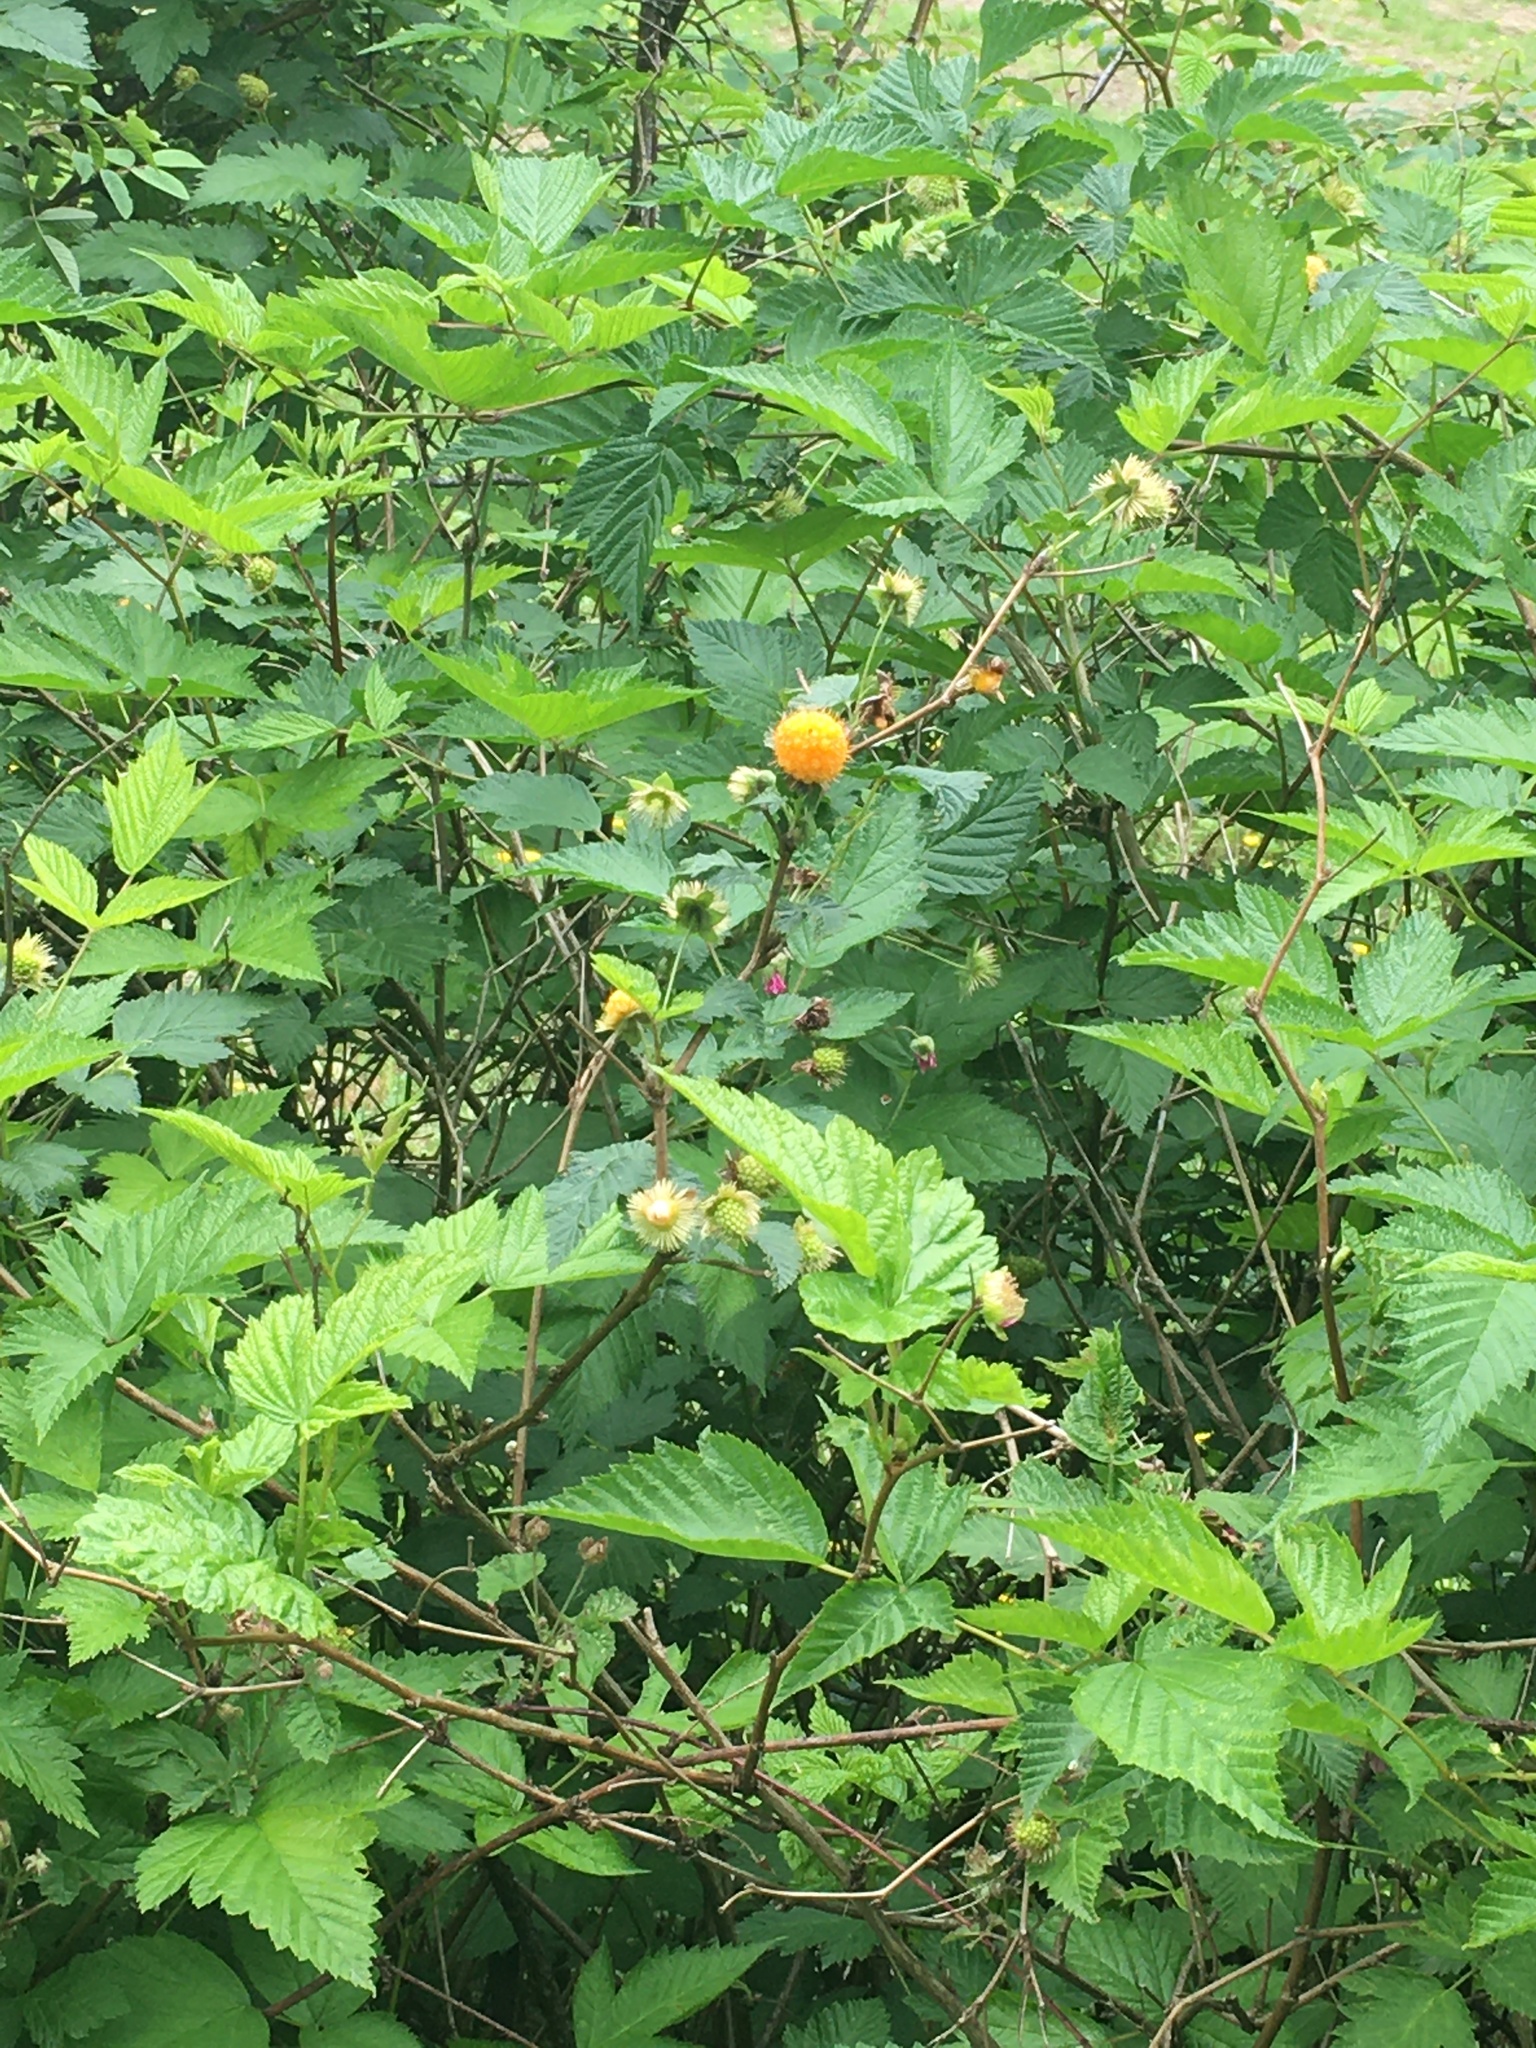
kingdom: Plantae
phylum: Tracheophyta
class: Magnoliopsida
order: Rosales
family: Rosaceae
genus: Rubus
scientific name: Rubus spectabilis
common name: Salmonberry
